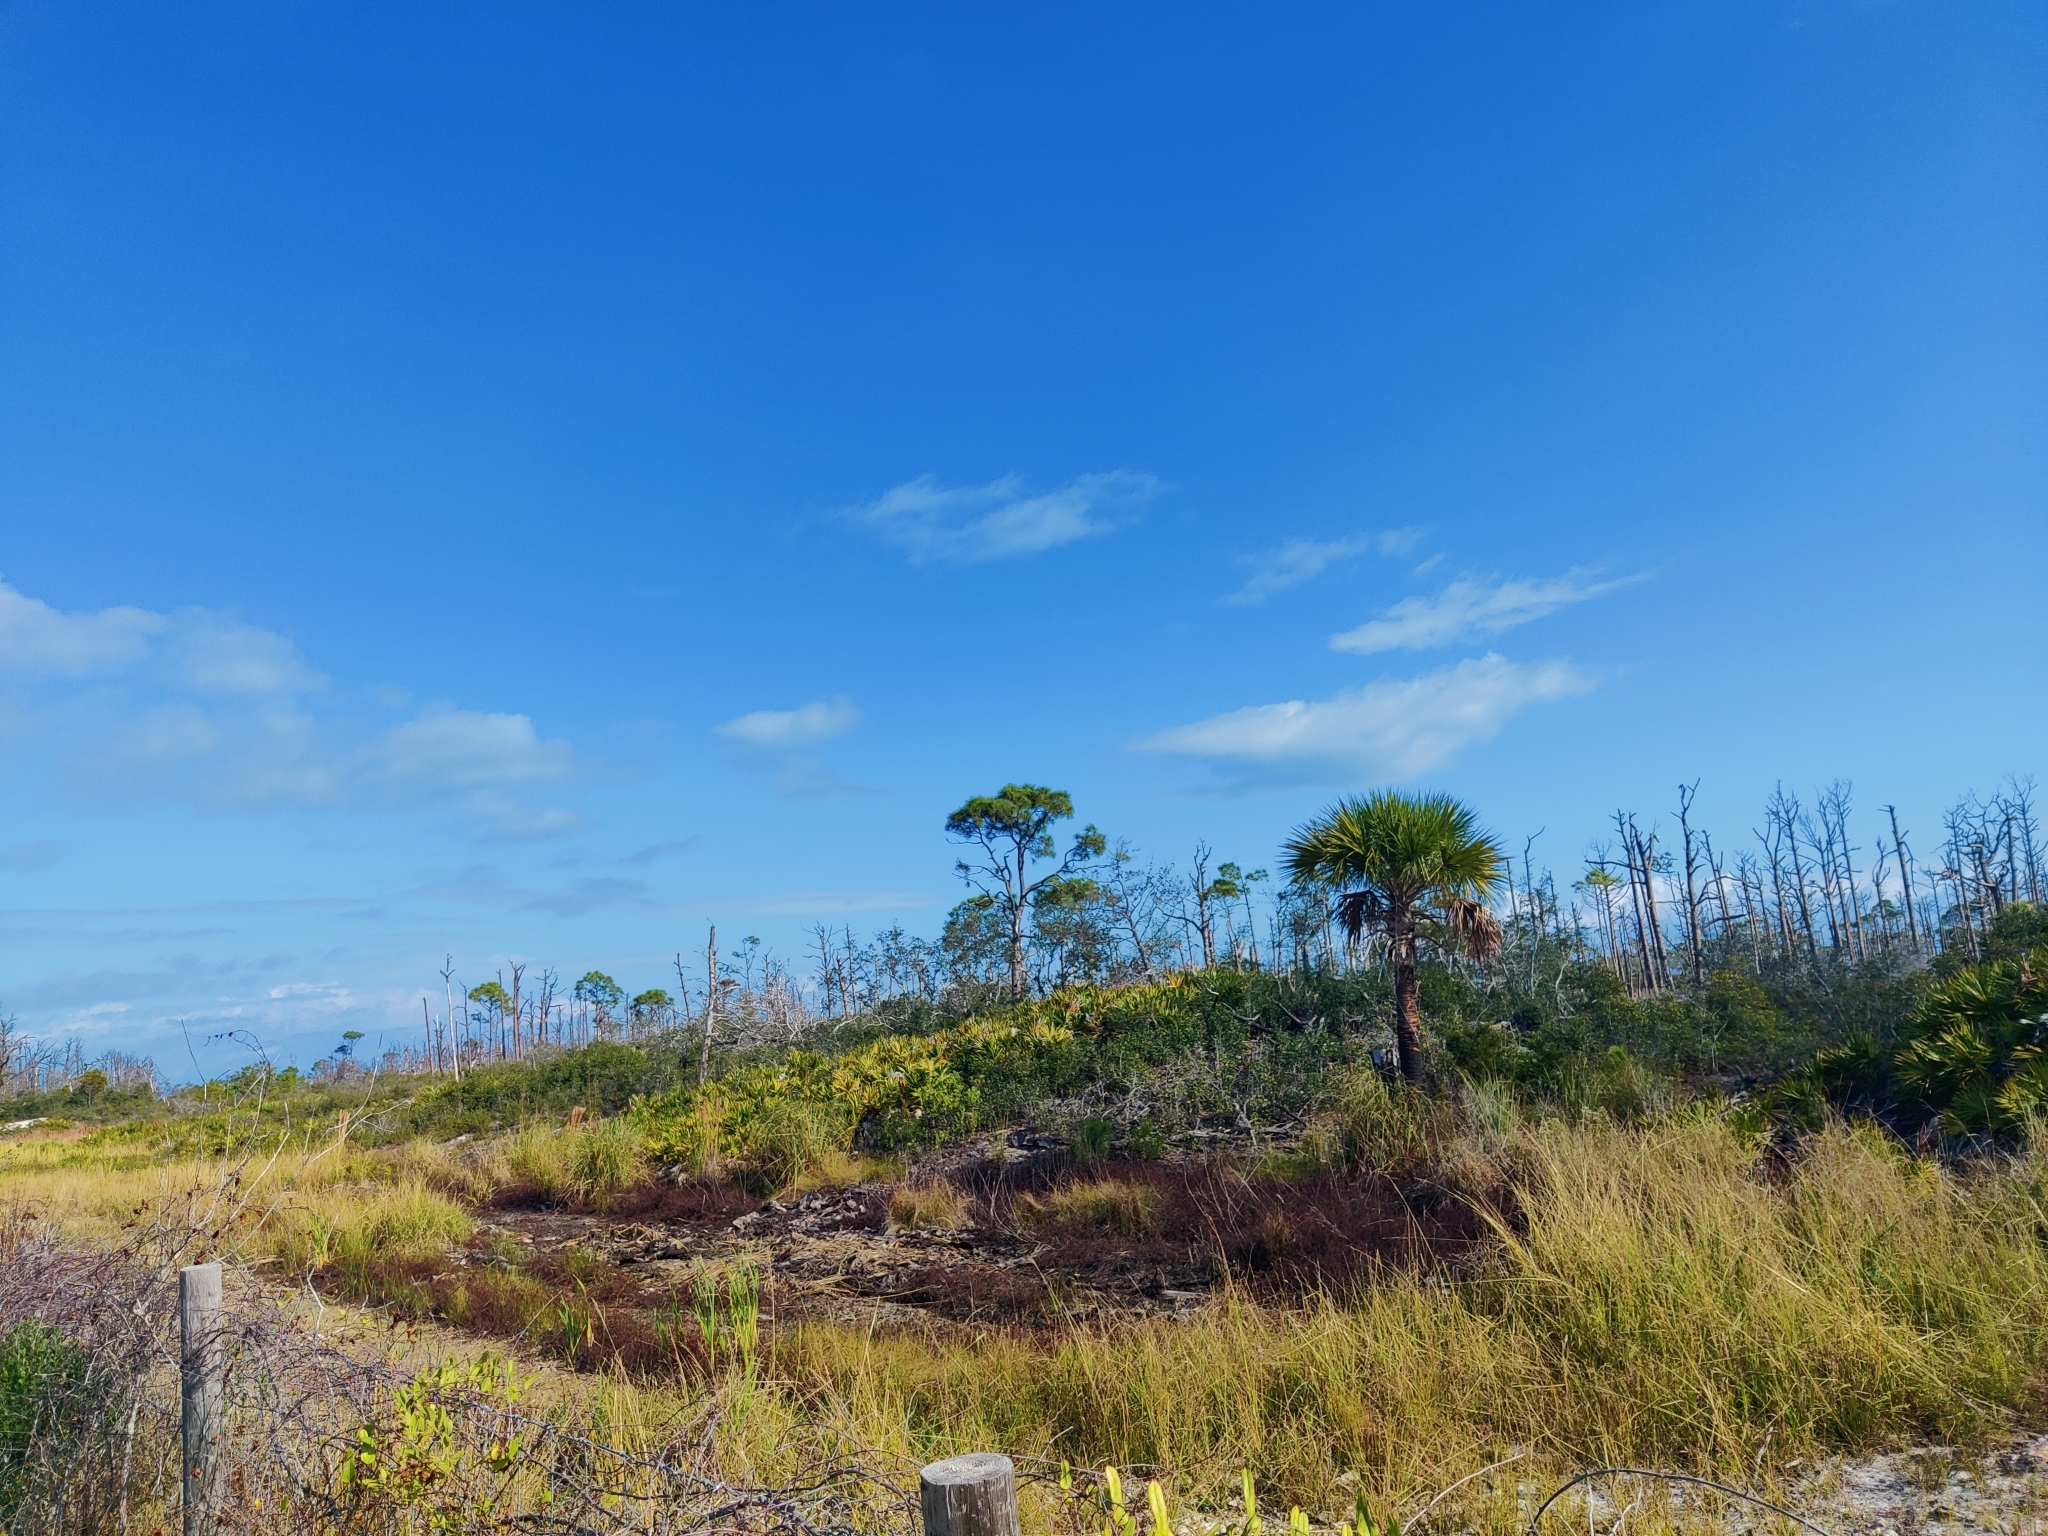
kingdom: Plantae
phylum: Tracheophyta
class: Liliopsida
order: Arecales
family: Arecaceae
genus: Serenoa
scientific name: Serenoa repens
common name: Saw-palmetto
